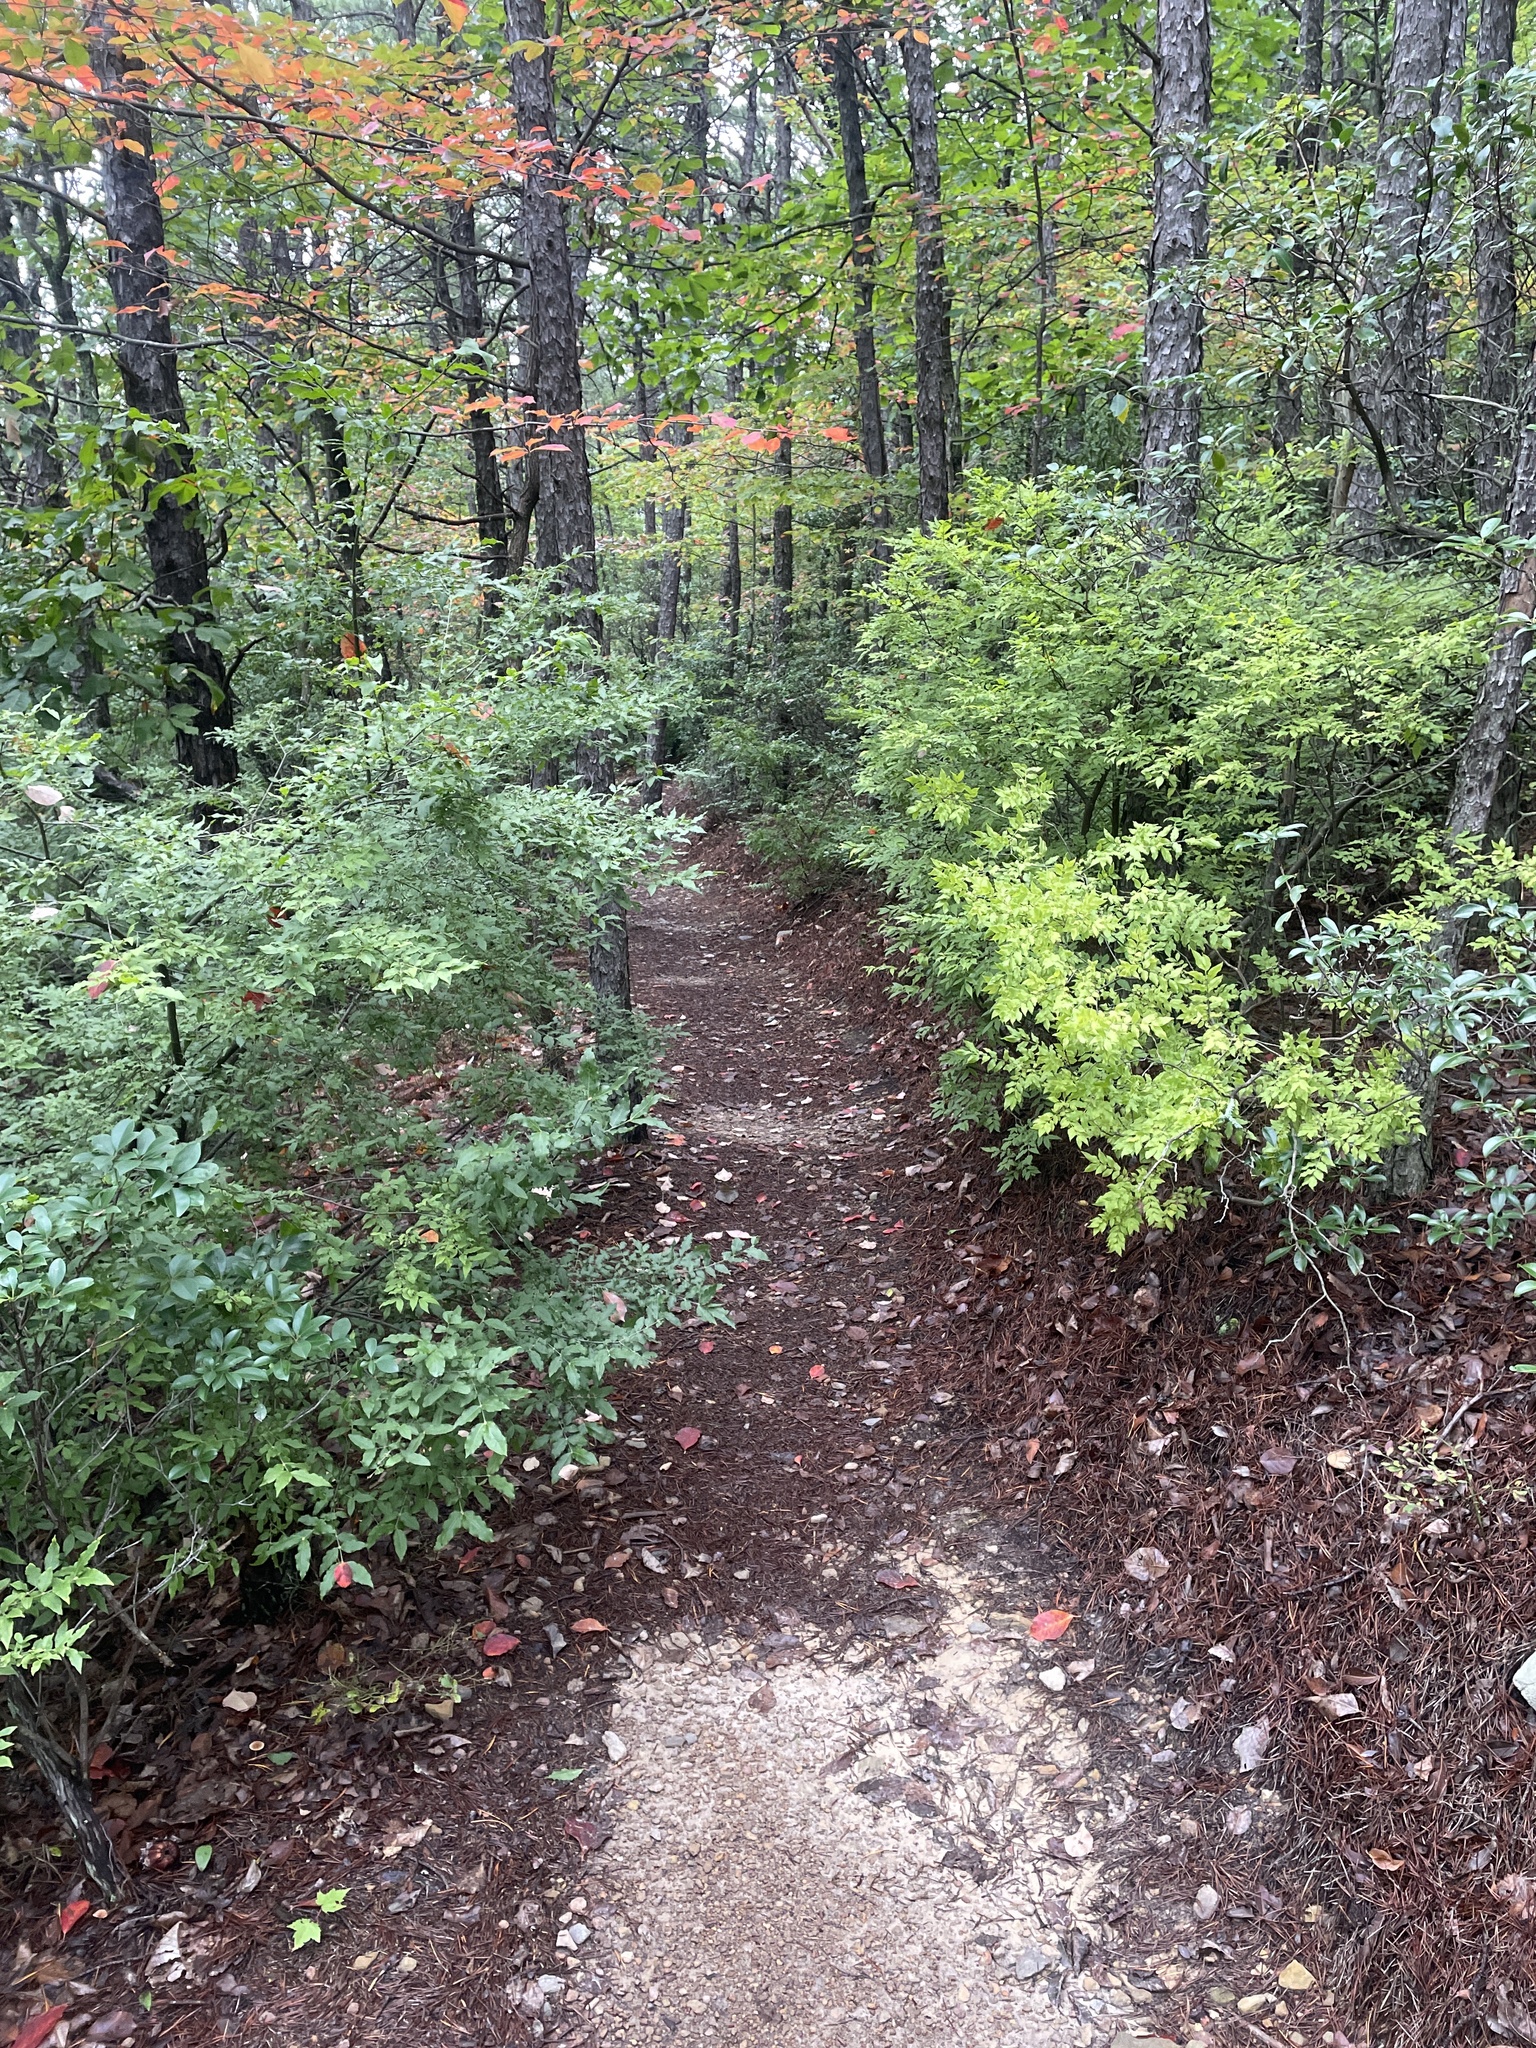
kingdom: Plantae
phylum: Tracheophyta
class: Magnoliopsida
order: Santalales
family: Thesiaceae
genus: Buckleya
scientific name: Buckleya distichophylla
